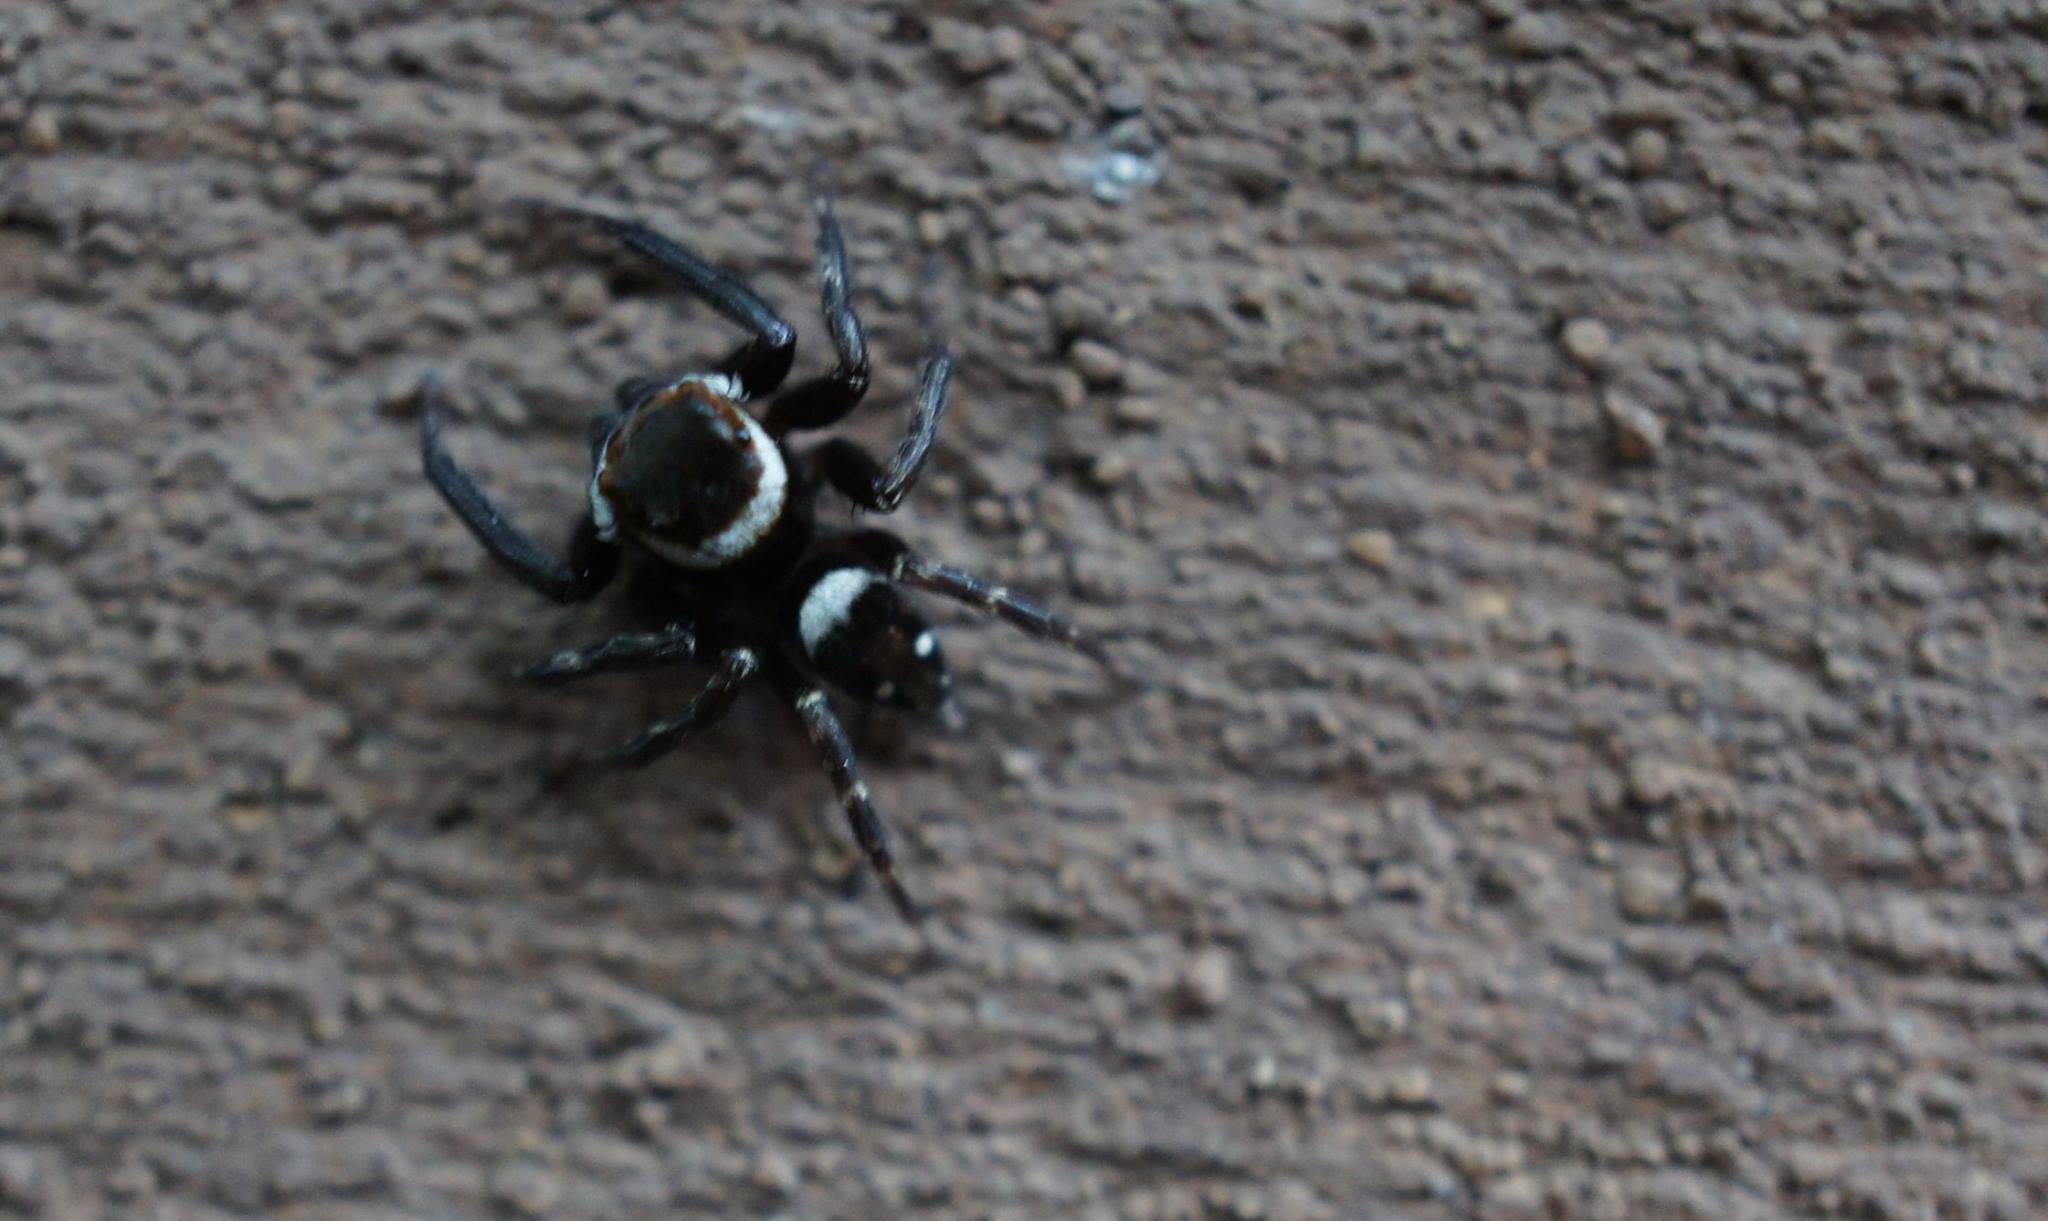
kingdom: Animalia
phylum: Arthropoda
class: Arachnida
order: Araneae
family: Salticidae
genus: Hasarius
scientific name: Hasarius adansoni
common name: Jumping spider
